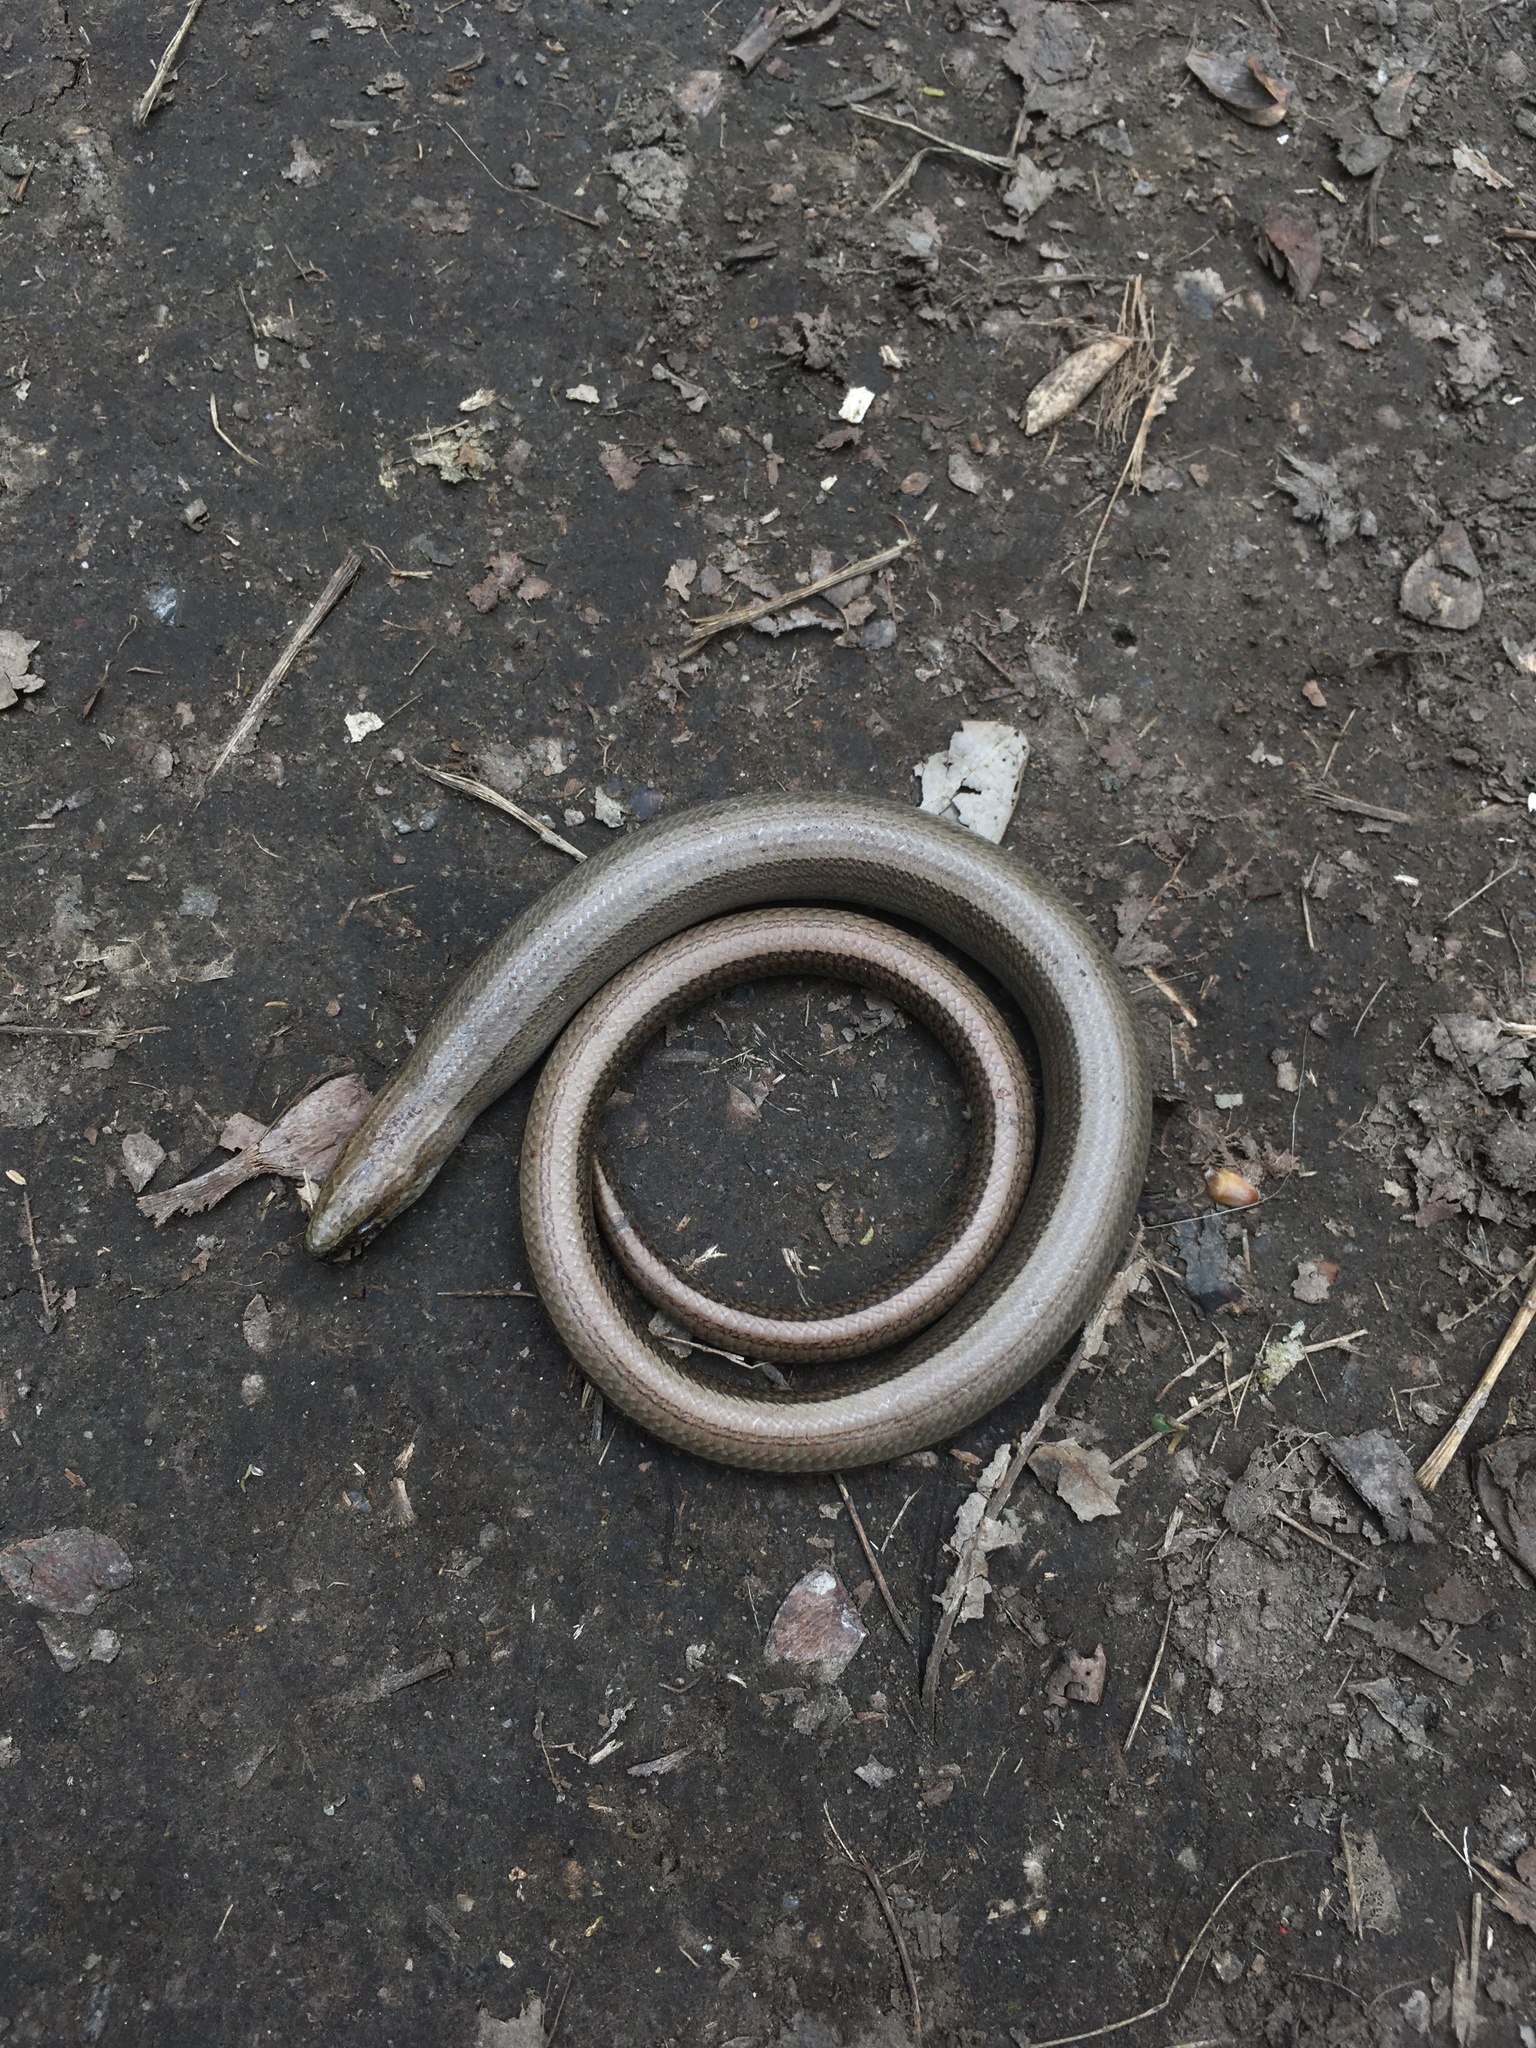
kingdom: Animalia
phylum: Chordata
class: Squamata
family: Anguidae
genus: Anguis
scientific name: Anguis colchica
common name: Slow worm
